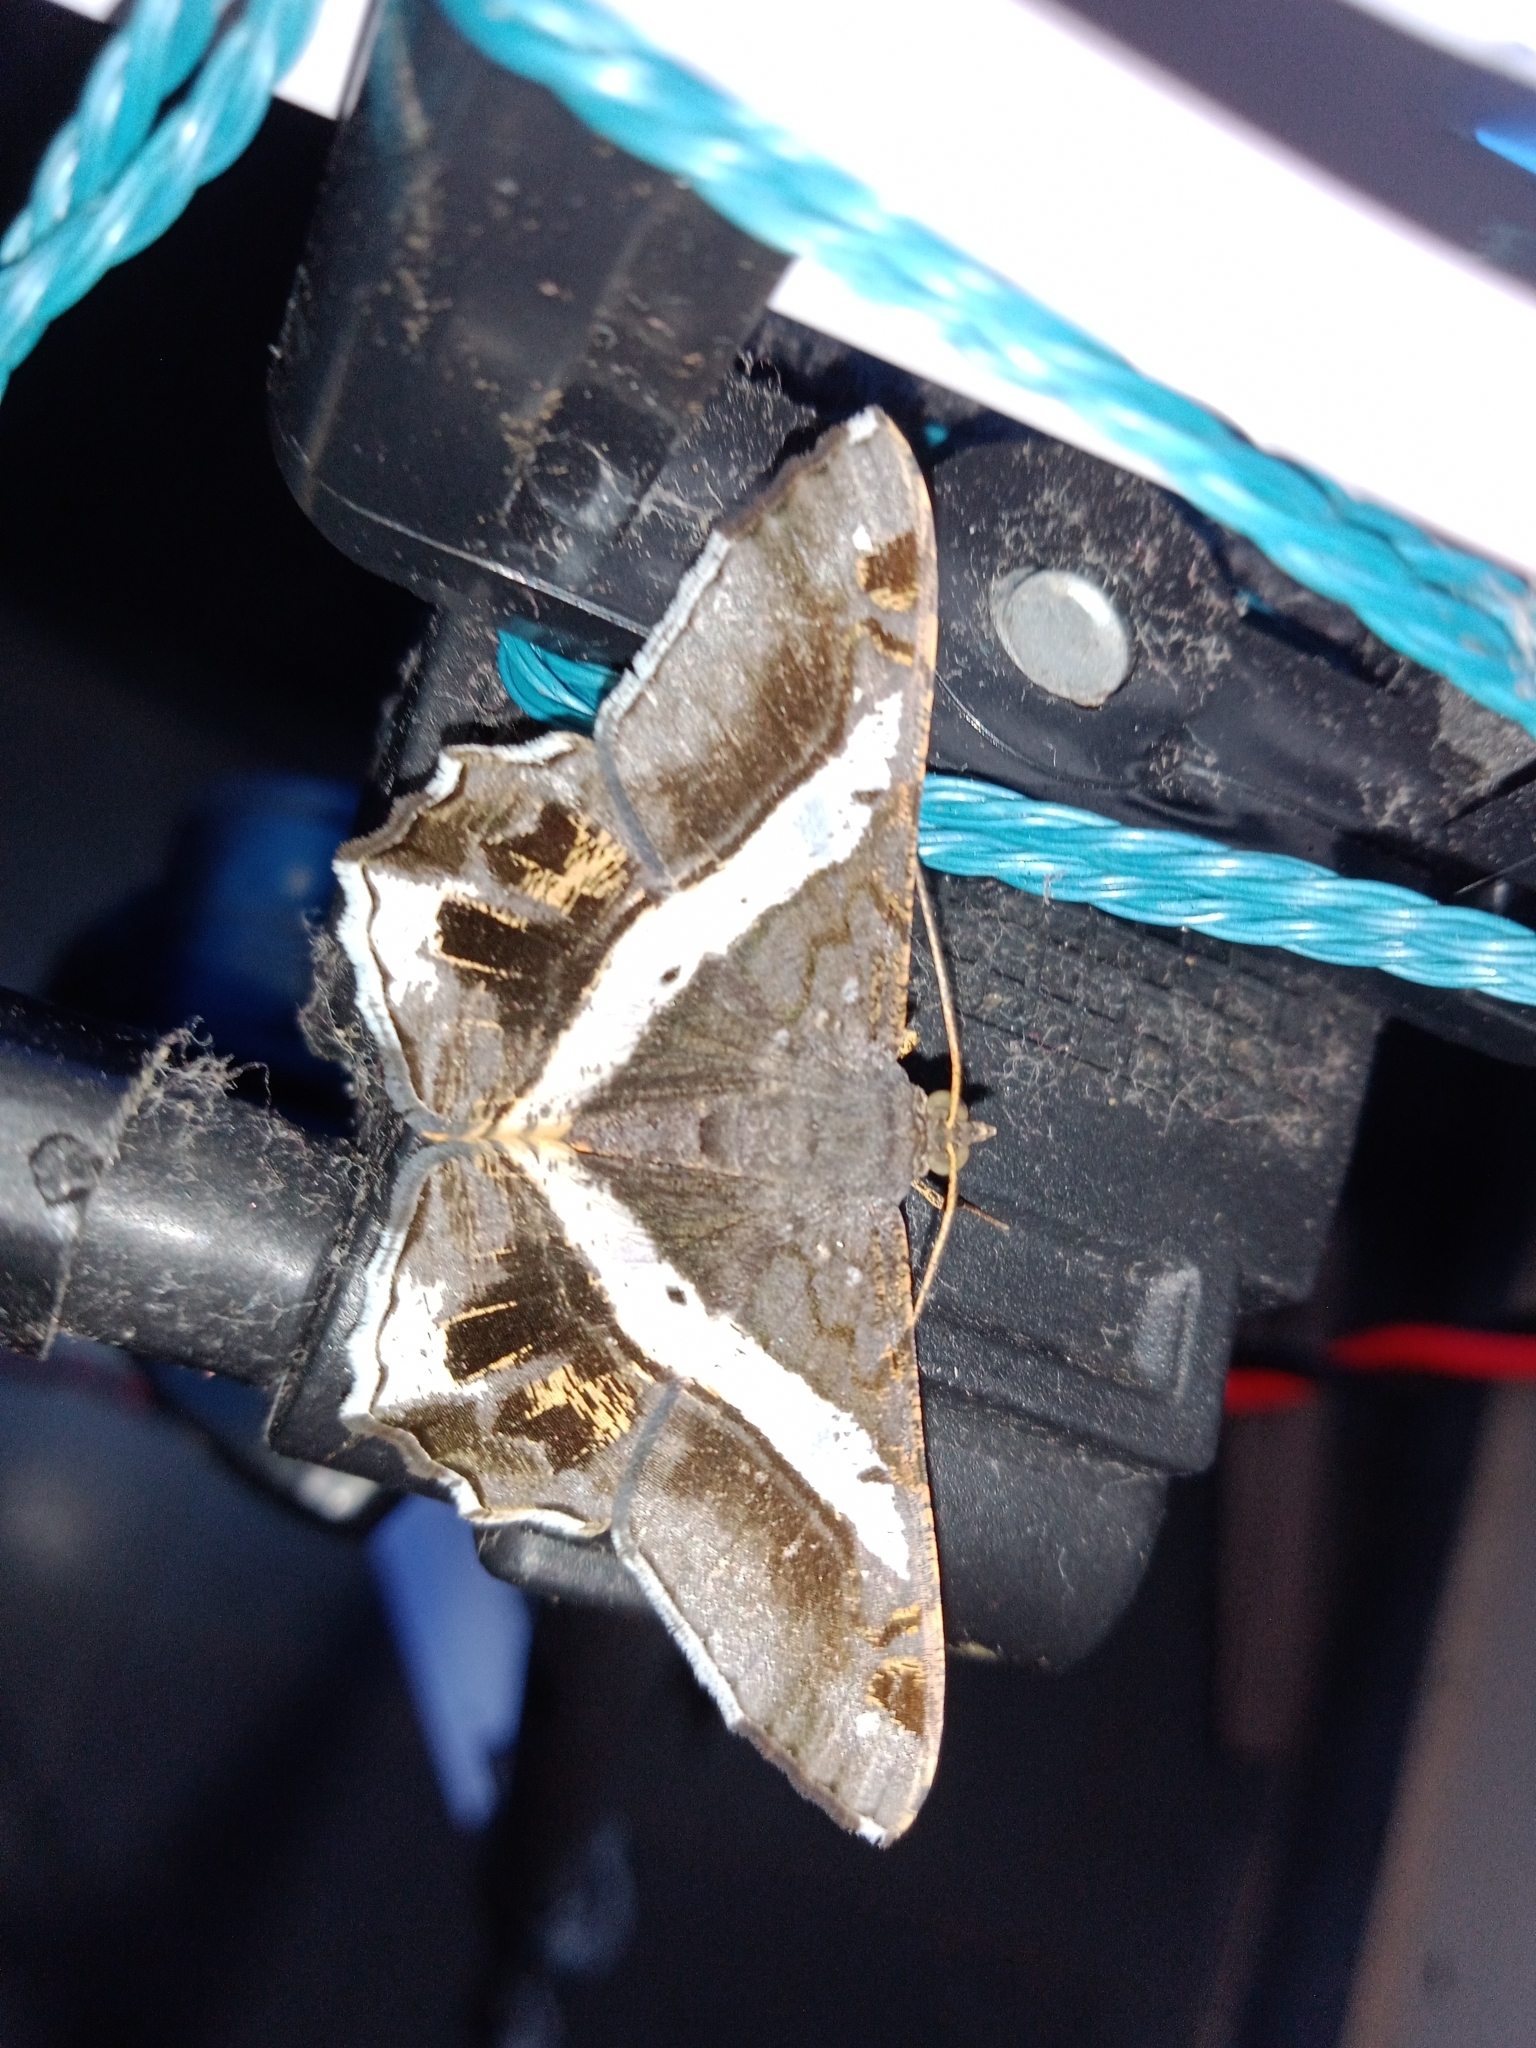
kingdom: Animalia
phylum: Arthropoda
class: Insecta
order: Lepidoptera
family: Geometridae
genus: Chiasmia
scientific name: Chiasmia nora
